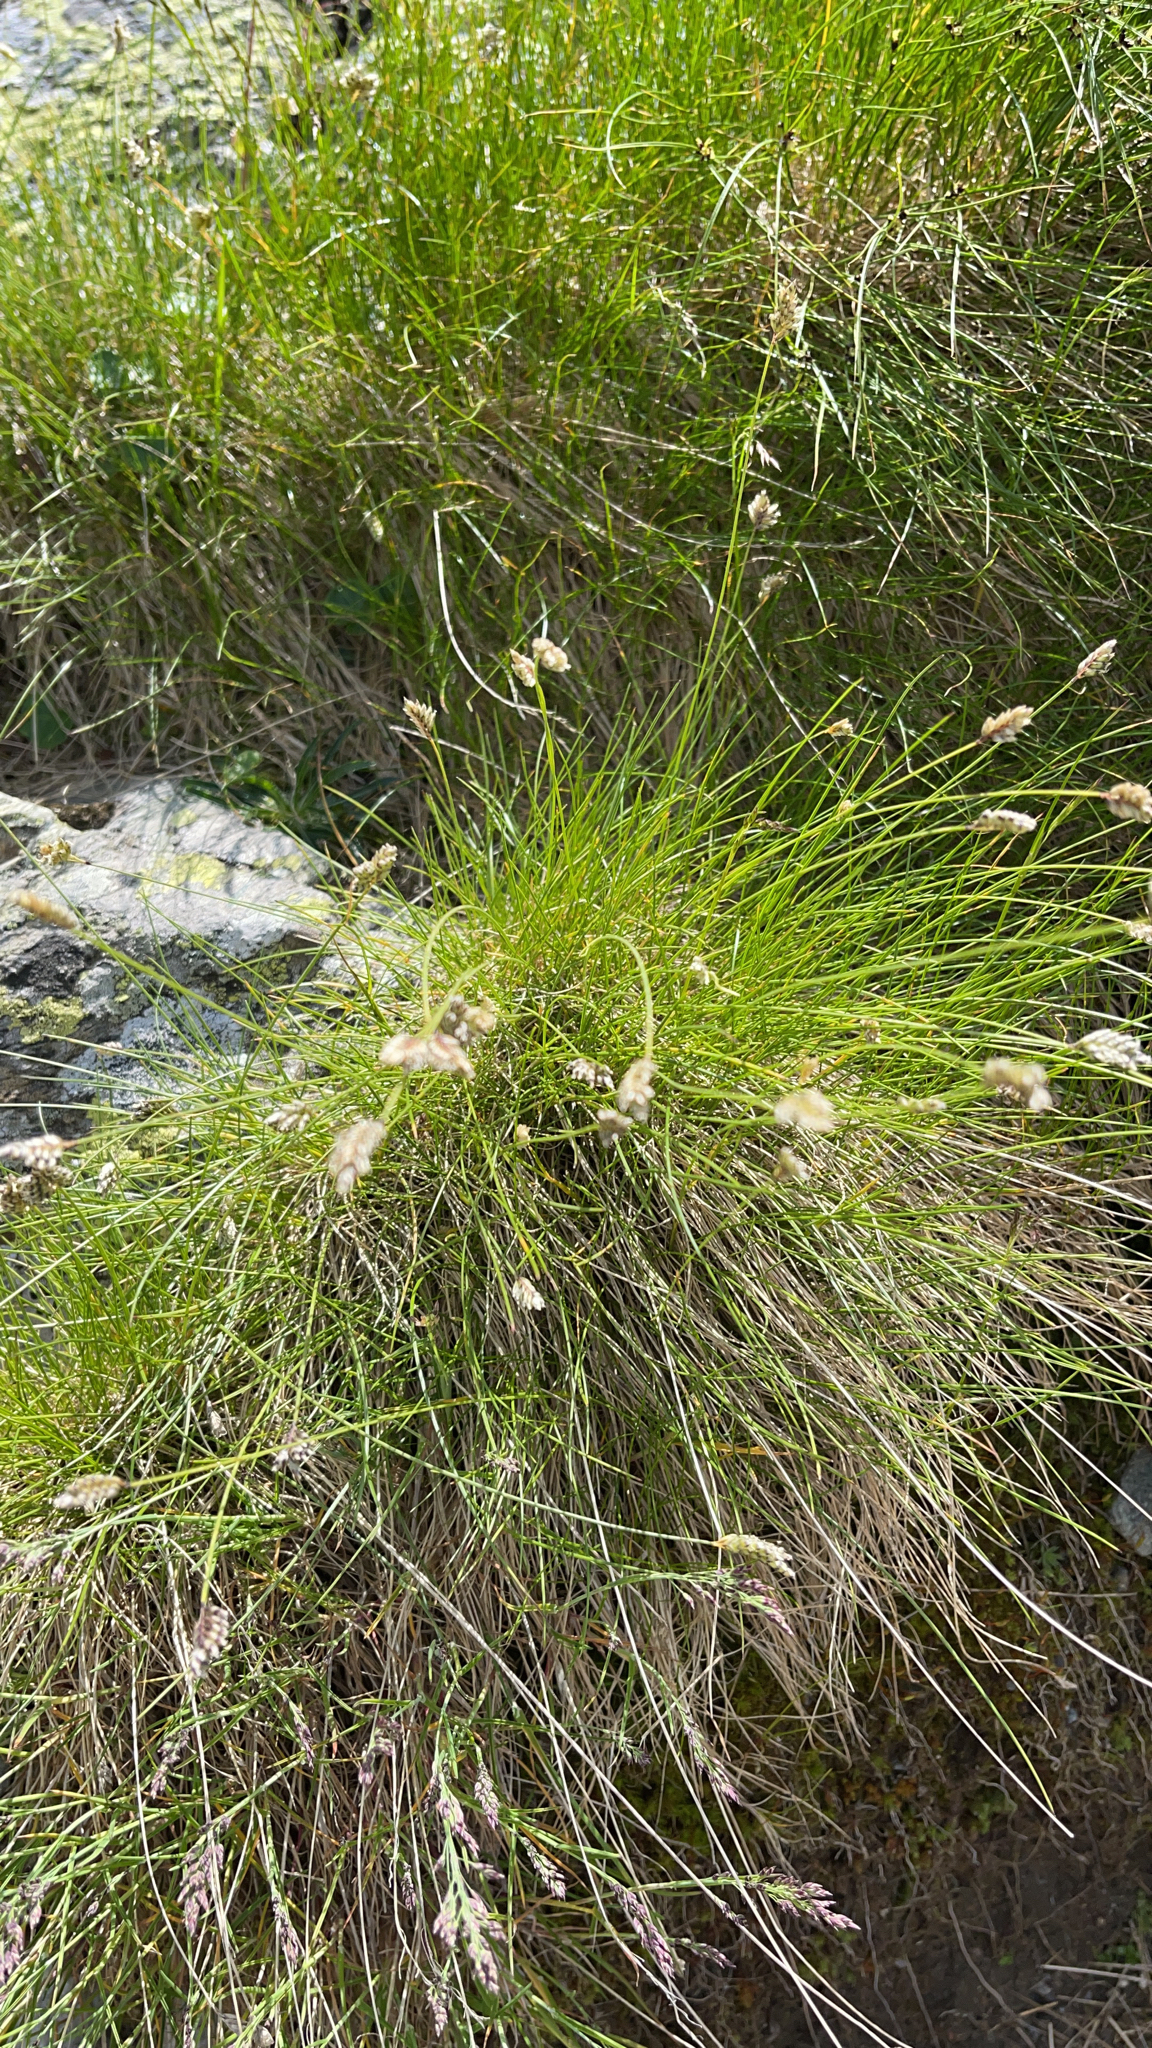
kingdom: Plantae
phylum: Tracheophyta
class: Liliopsida
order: Poales
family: Poaceae
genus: Oreochloa
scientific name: Oreochloa disticha
